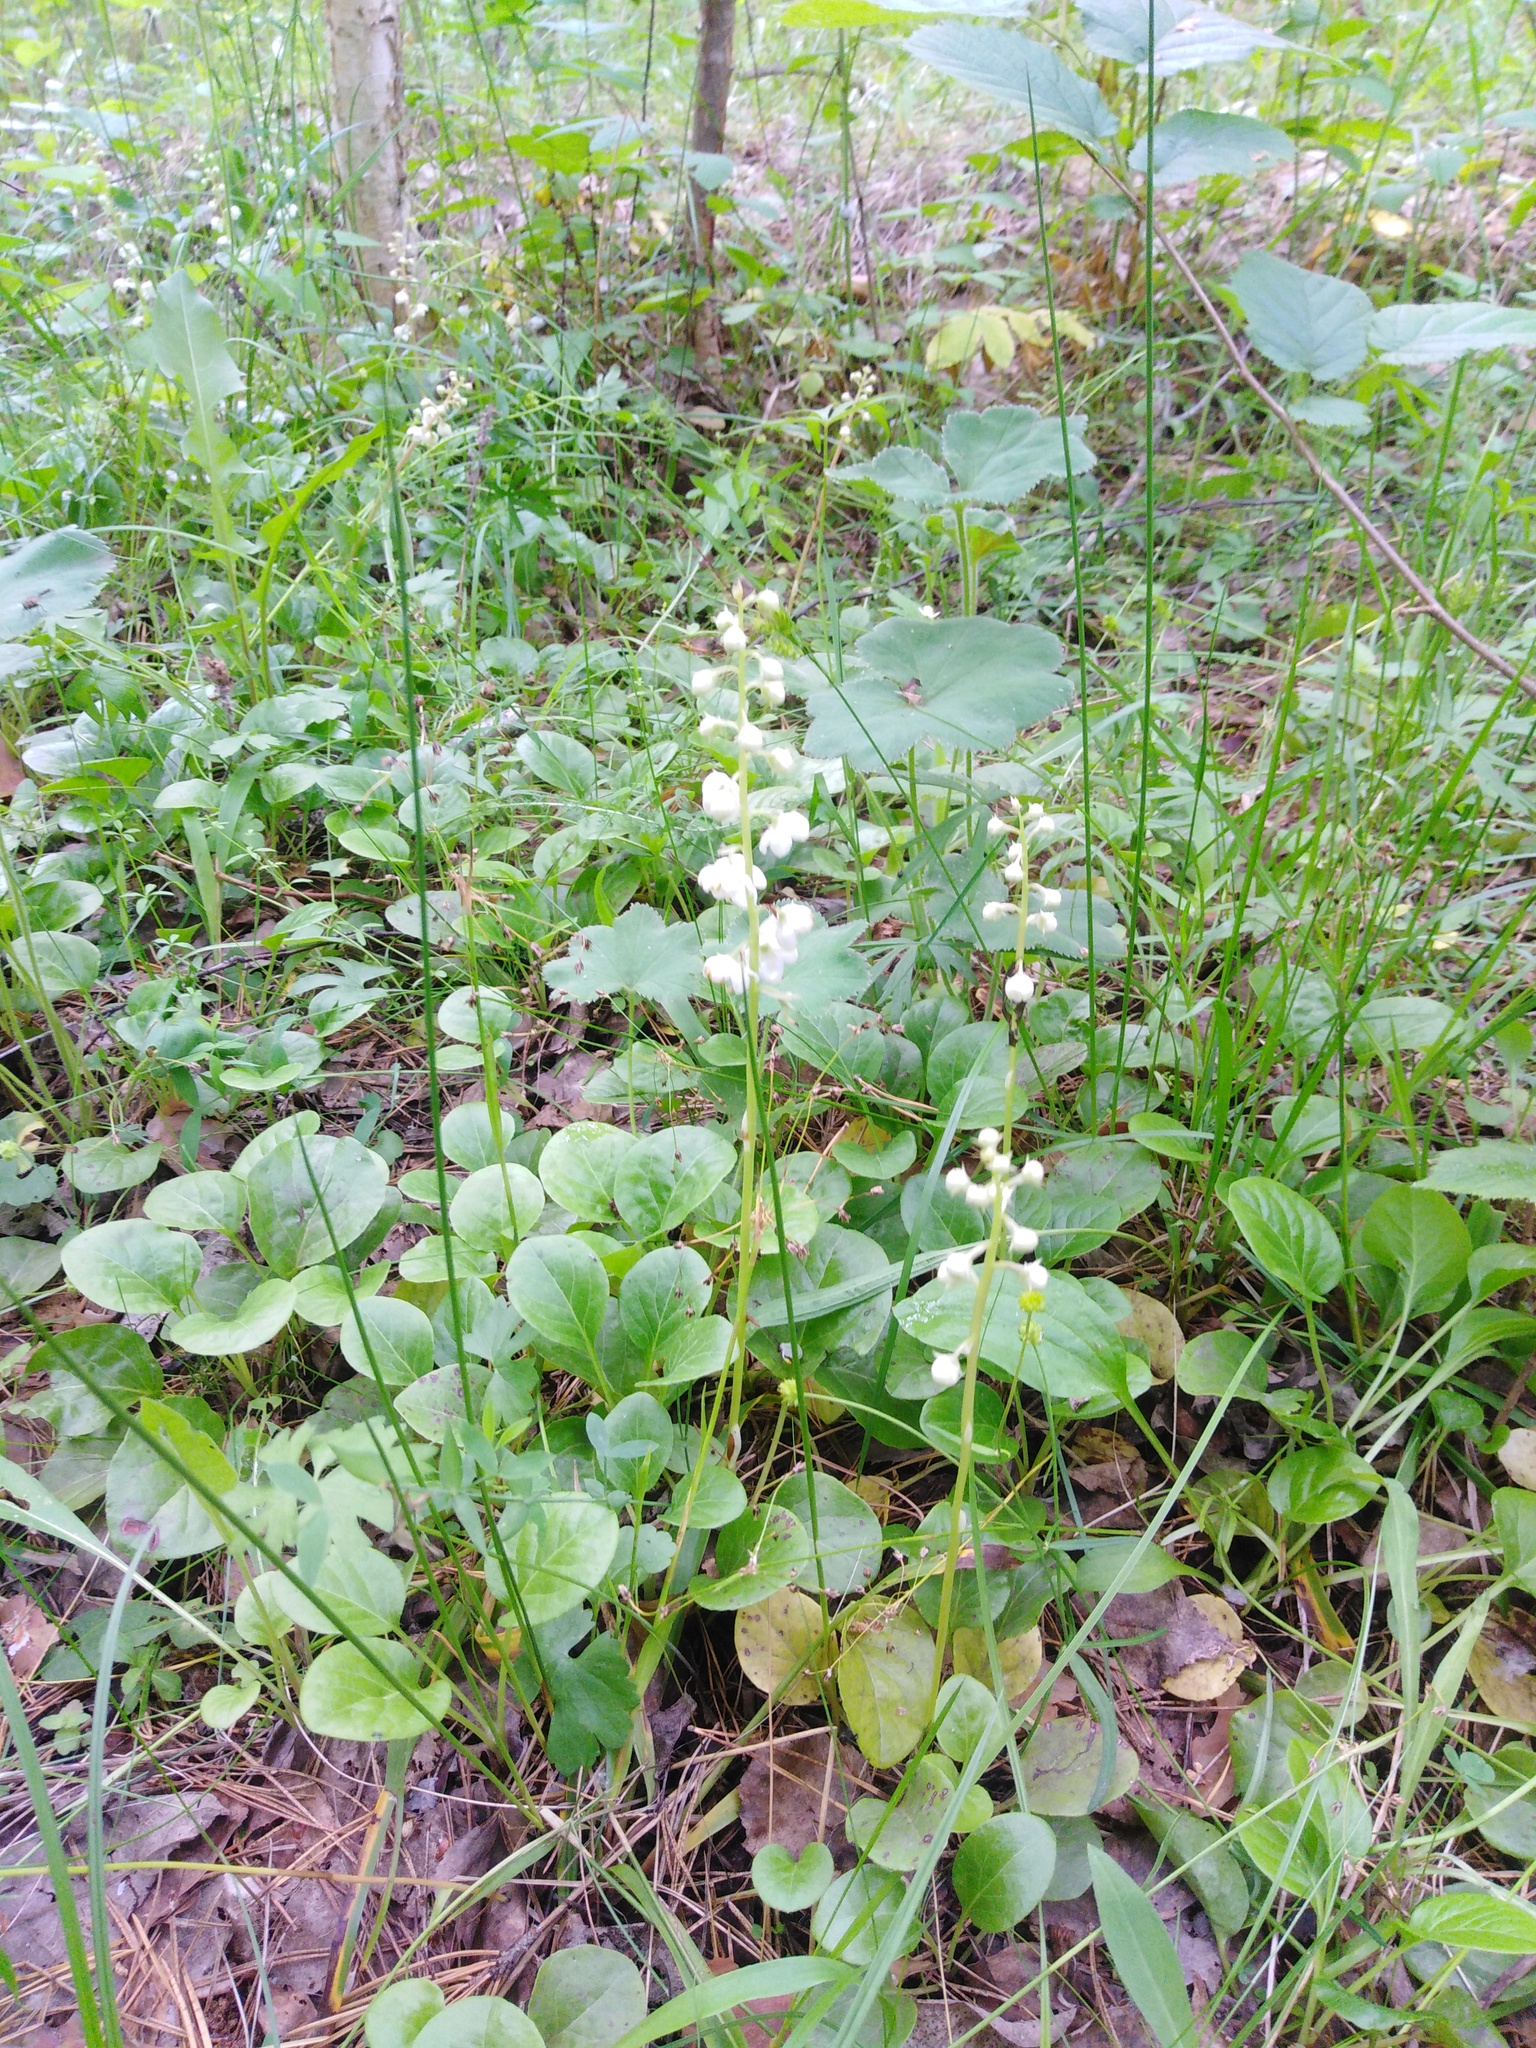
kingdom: Plantae
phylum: Tracheophyta
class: Magnoliopsida
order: Ericales
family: Ericaceae
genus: Pyrola
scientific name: Pyrola rotundifolia
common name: Round-leaved wintergreen
